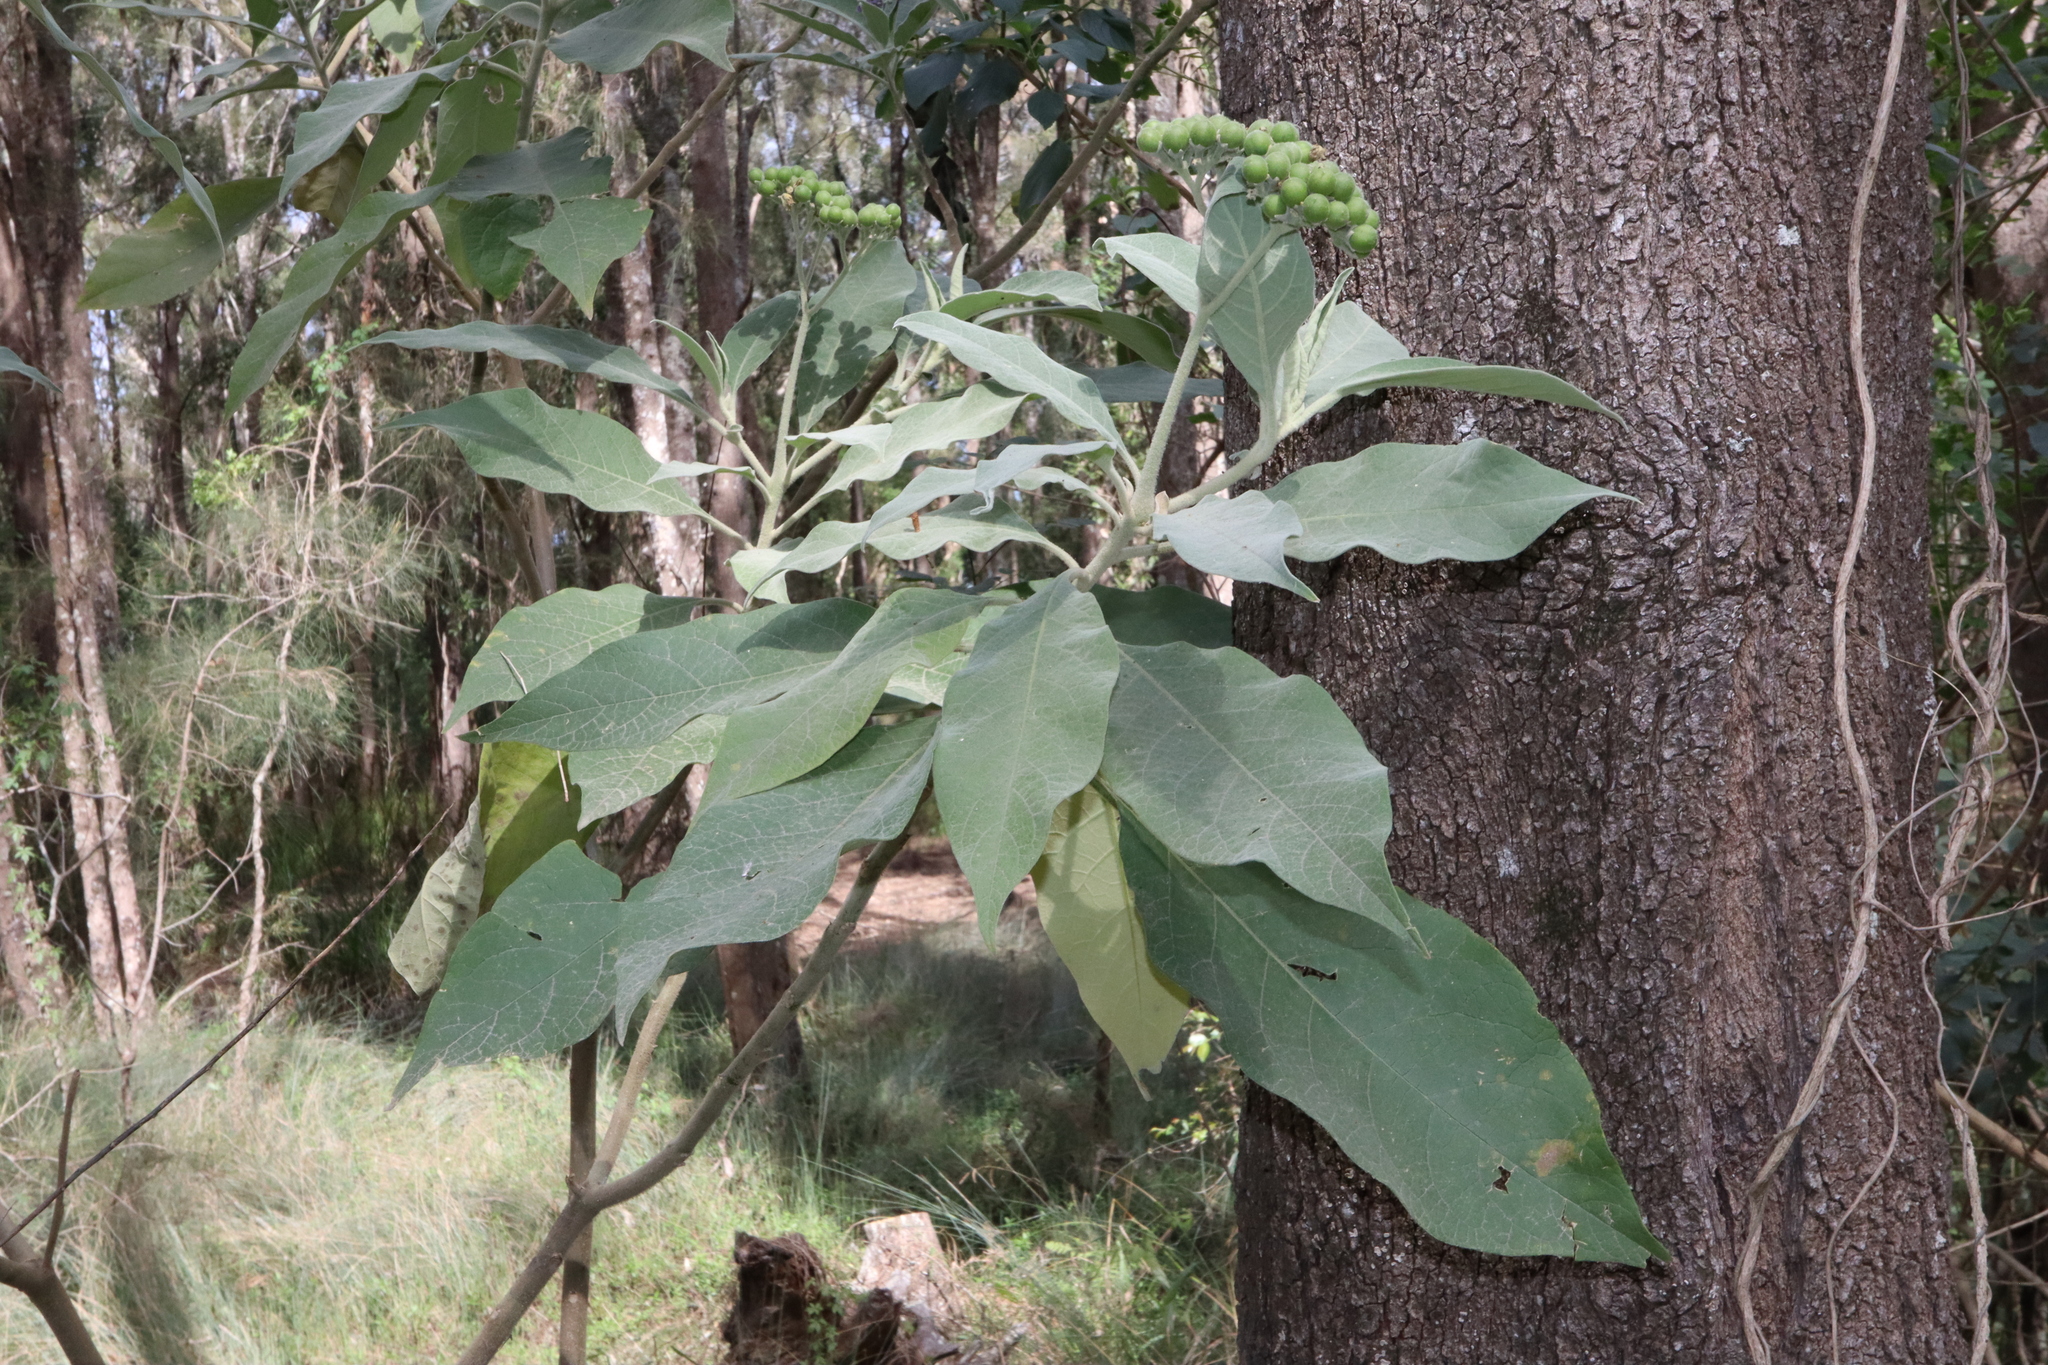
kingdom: Plantae
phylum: Tracheophyta
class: Magnoliopsida
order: Solanales
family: Solanaceae
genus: Solanum
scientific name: Solanum mauritianum
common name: Earleaf nightshade
